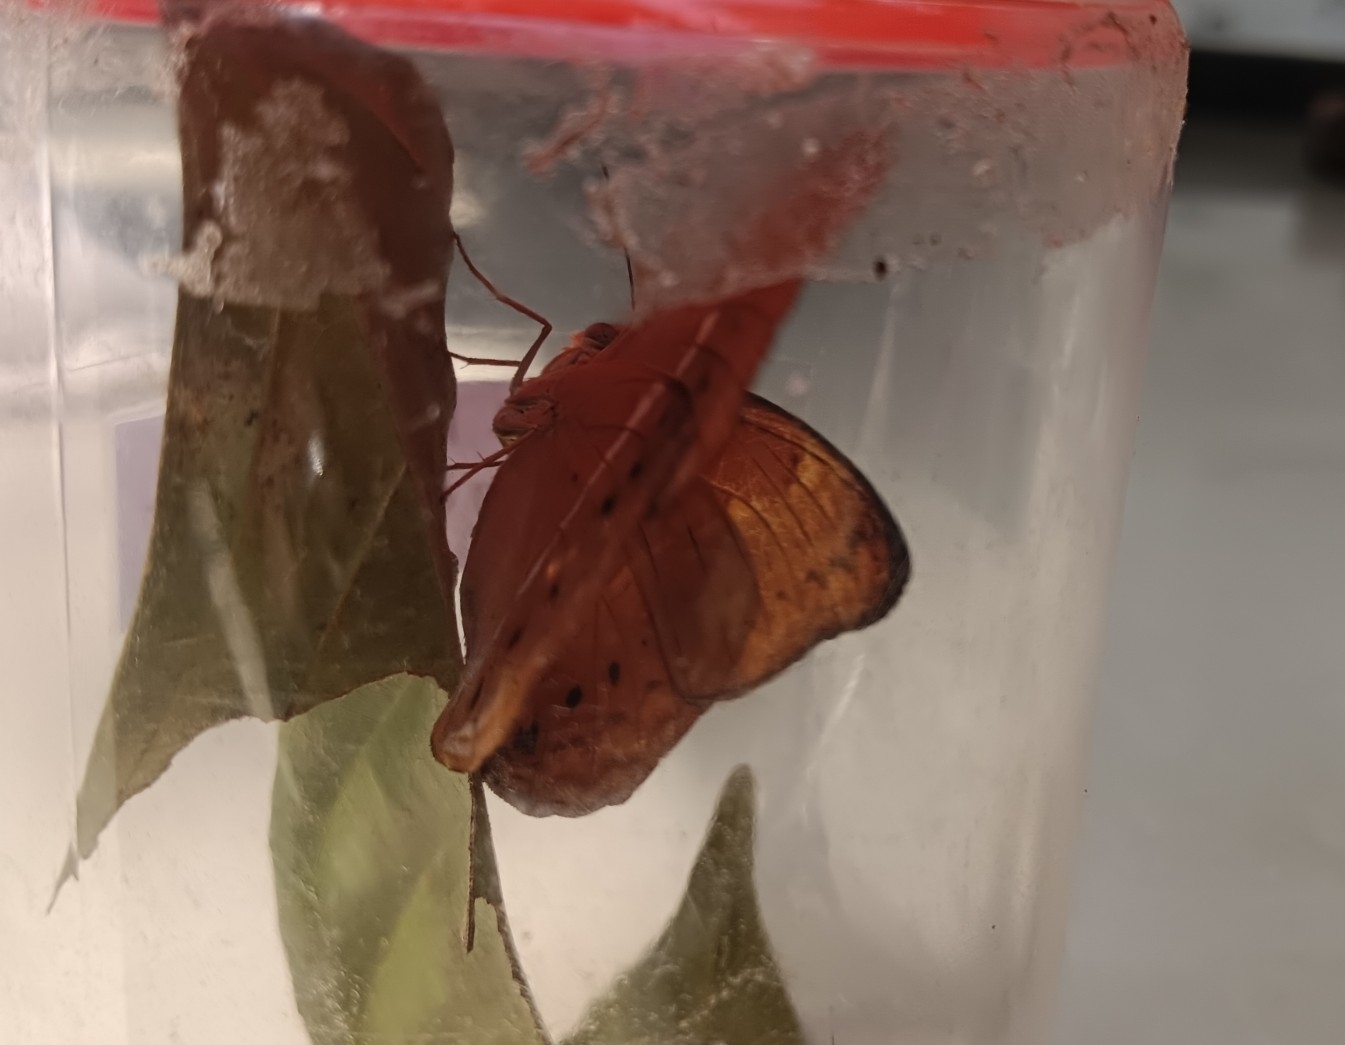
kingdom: Animalia
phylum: Arthropoda
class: Insecta
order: Lepidoptera
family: Nymphalidae
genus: Cirrochroa
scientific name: Cirrochroa thais
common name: Tamil yeoman
